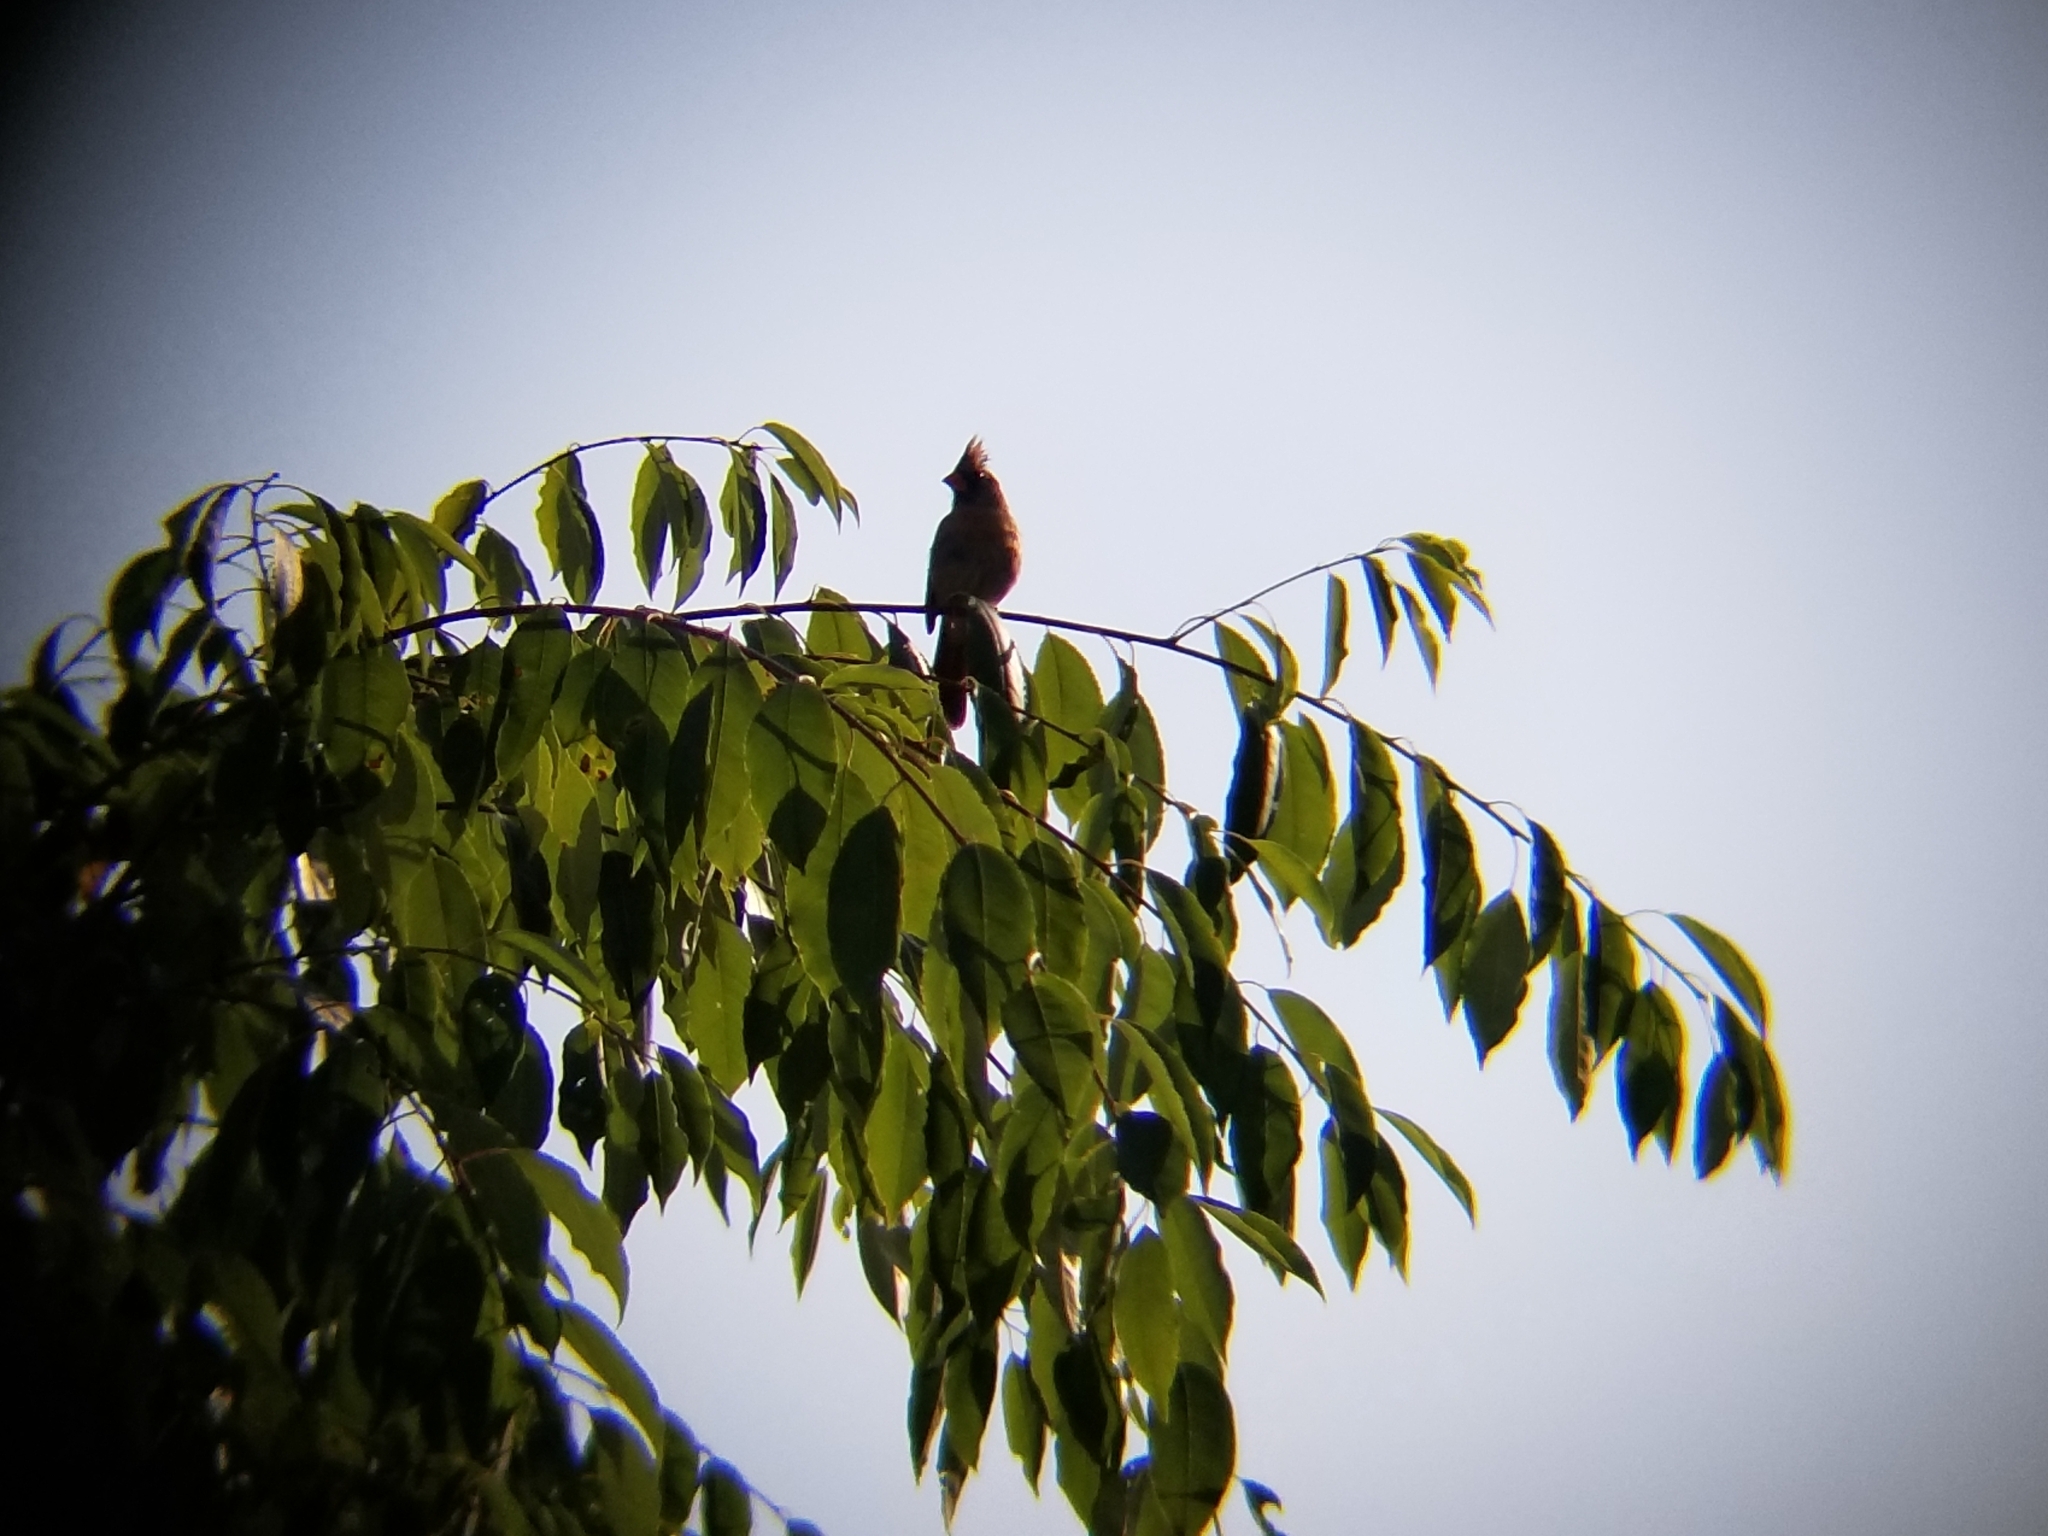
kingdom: Animalia
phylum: Chordata
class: Aves
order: Passeriformes
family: Cardinalidae
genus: Cardinalis
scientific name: Cardinalis cardinalis
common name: Northern cardinal
